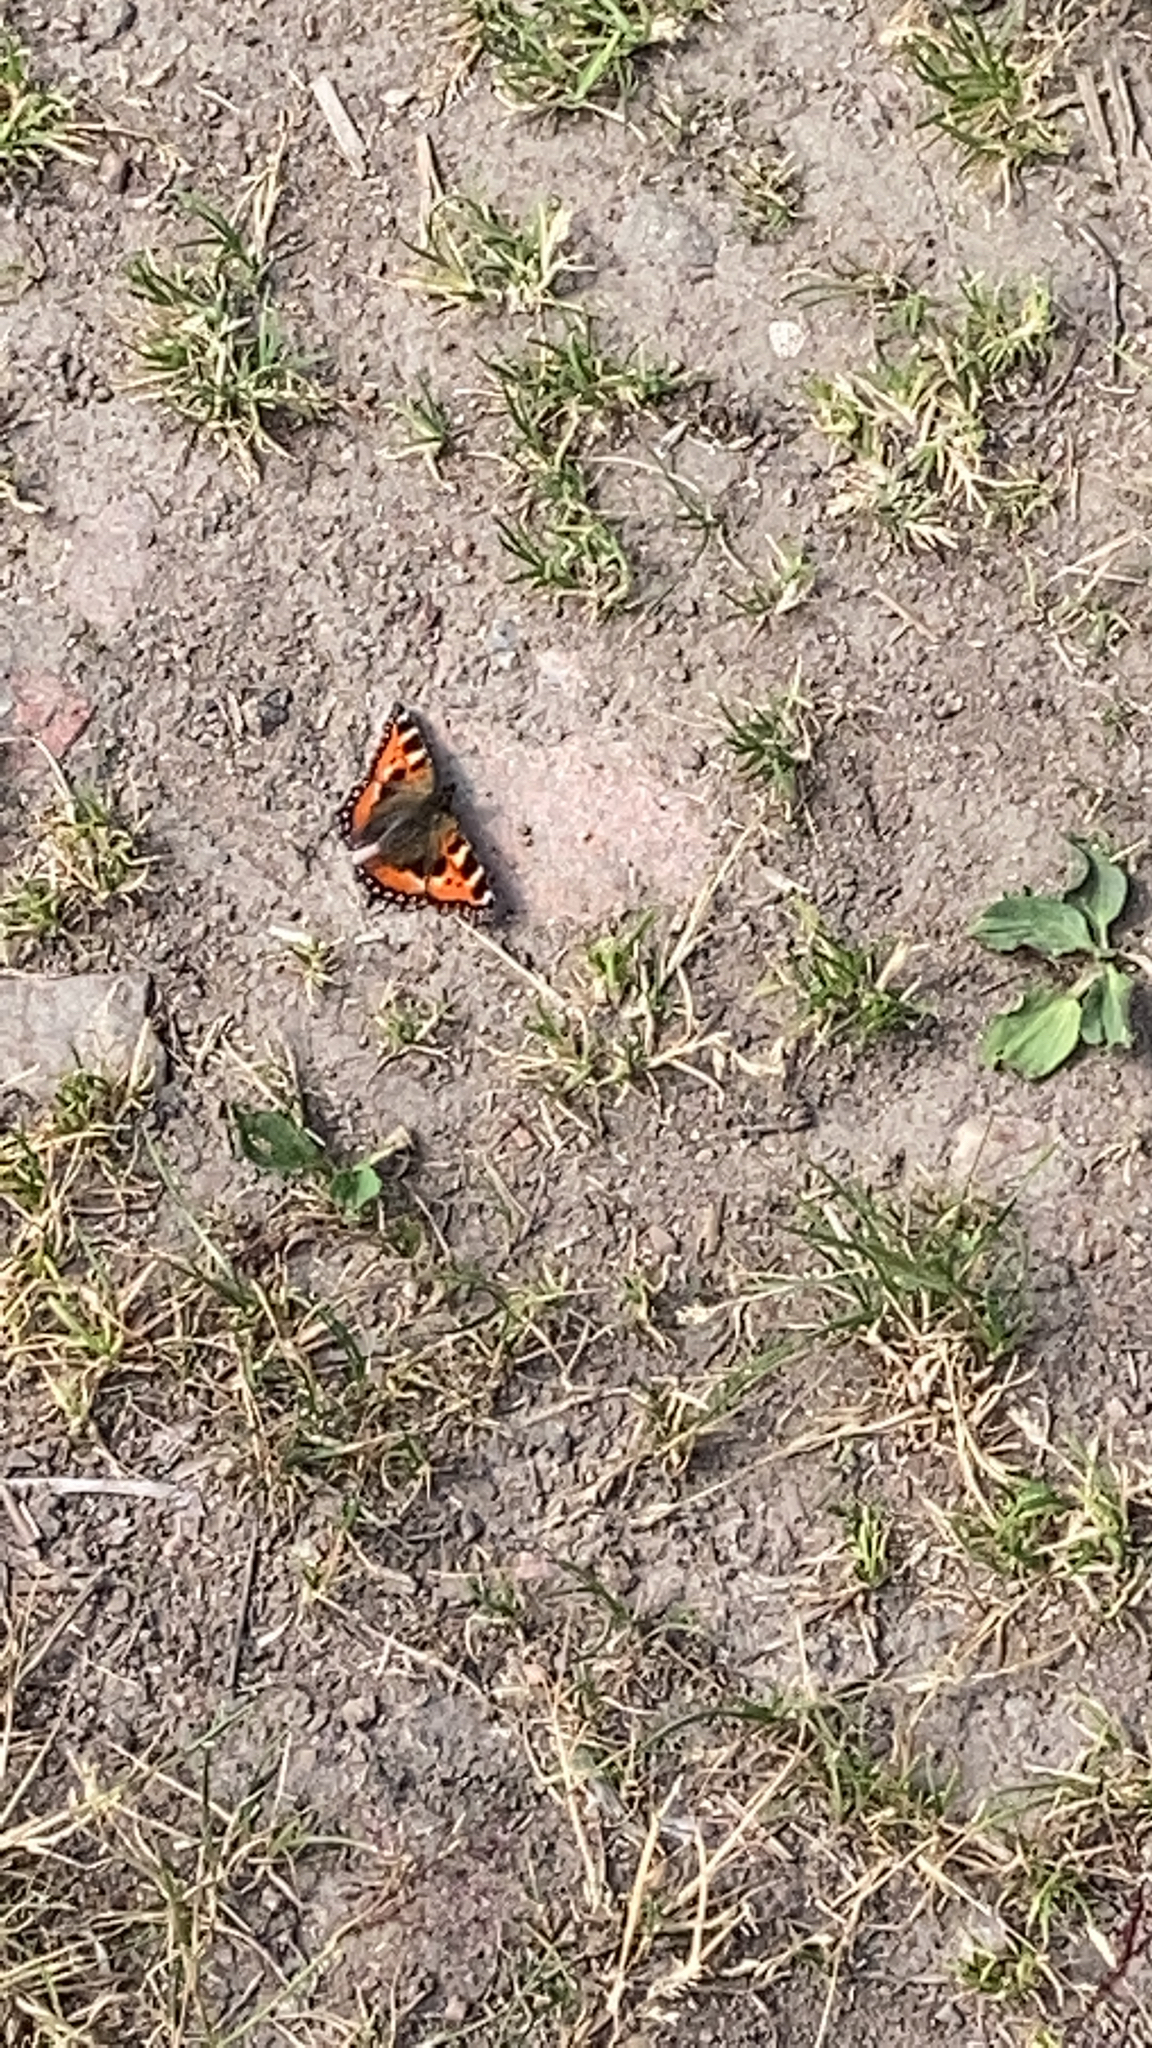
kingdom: Animalia
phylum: Arthropoda
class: Insecta
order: Lepidoptera
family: Nymphalidae
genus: Aglais
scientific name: Aglais urticae
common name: Small tortoiseshell
